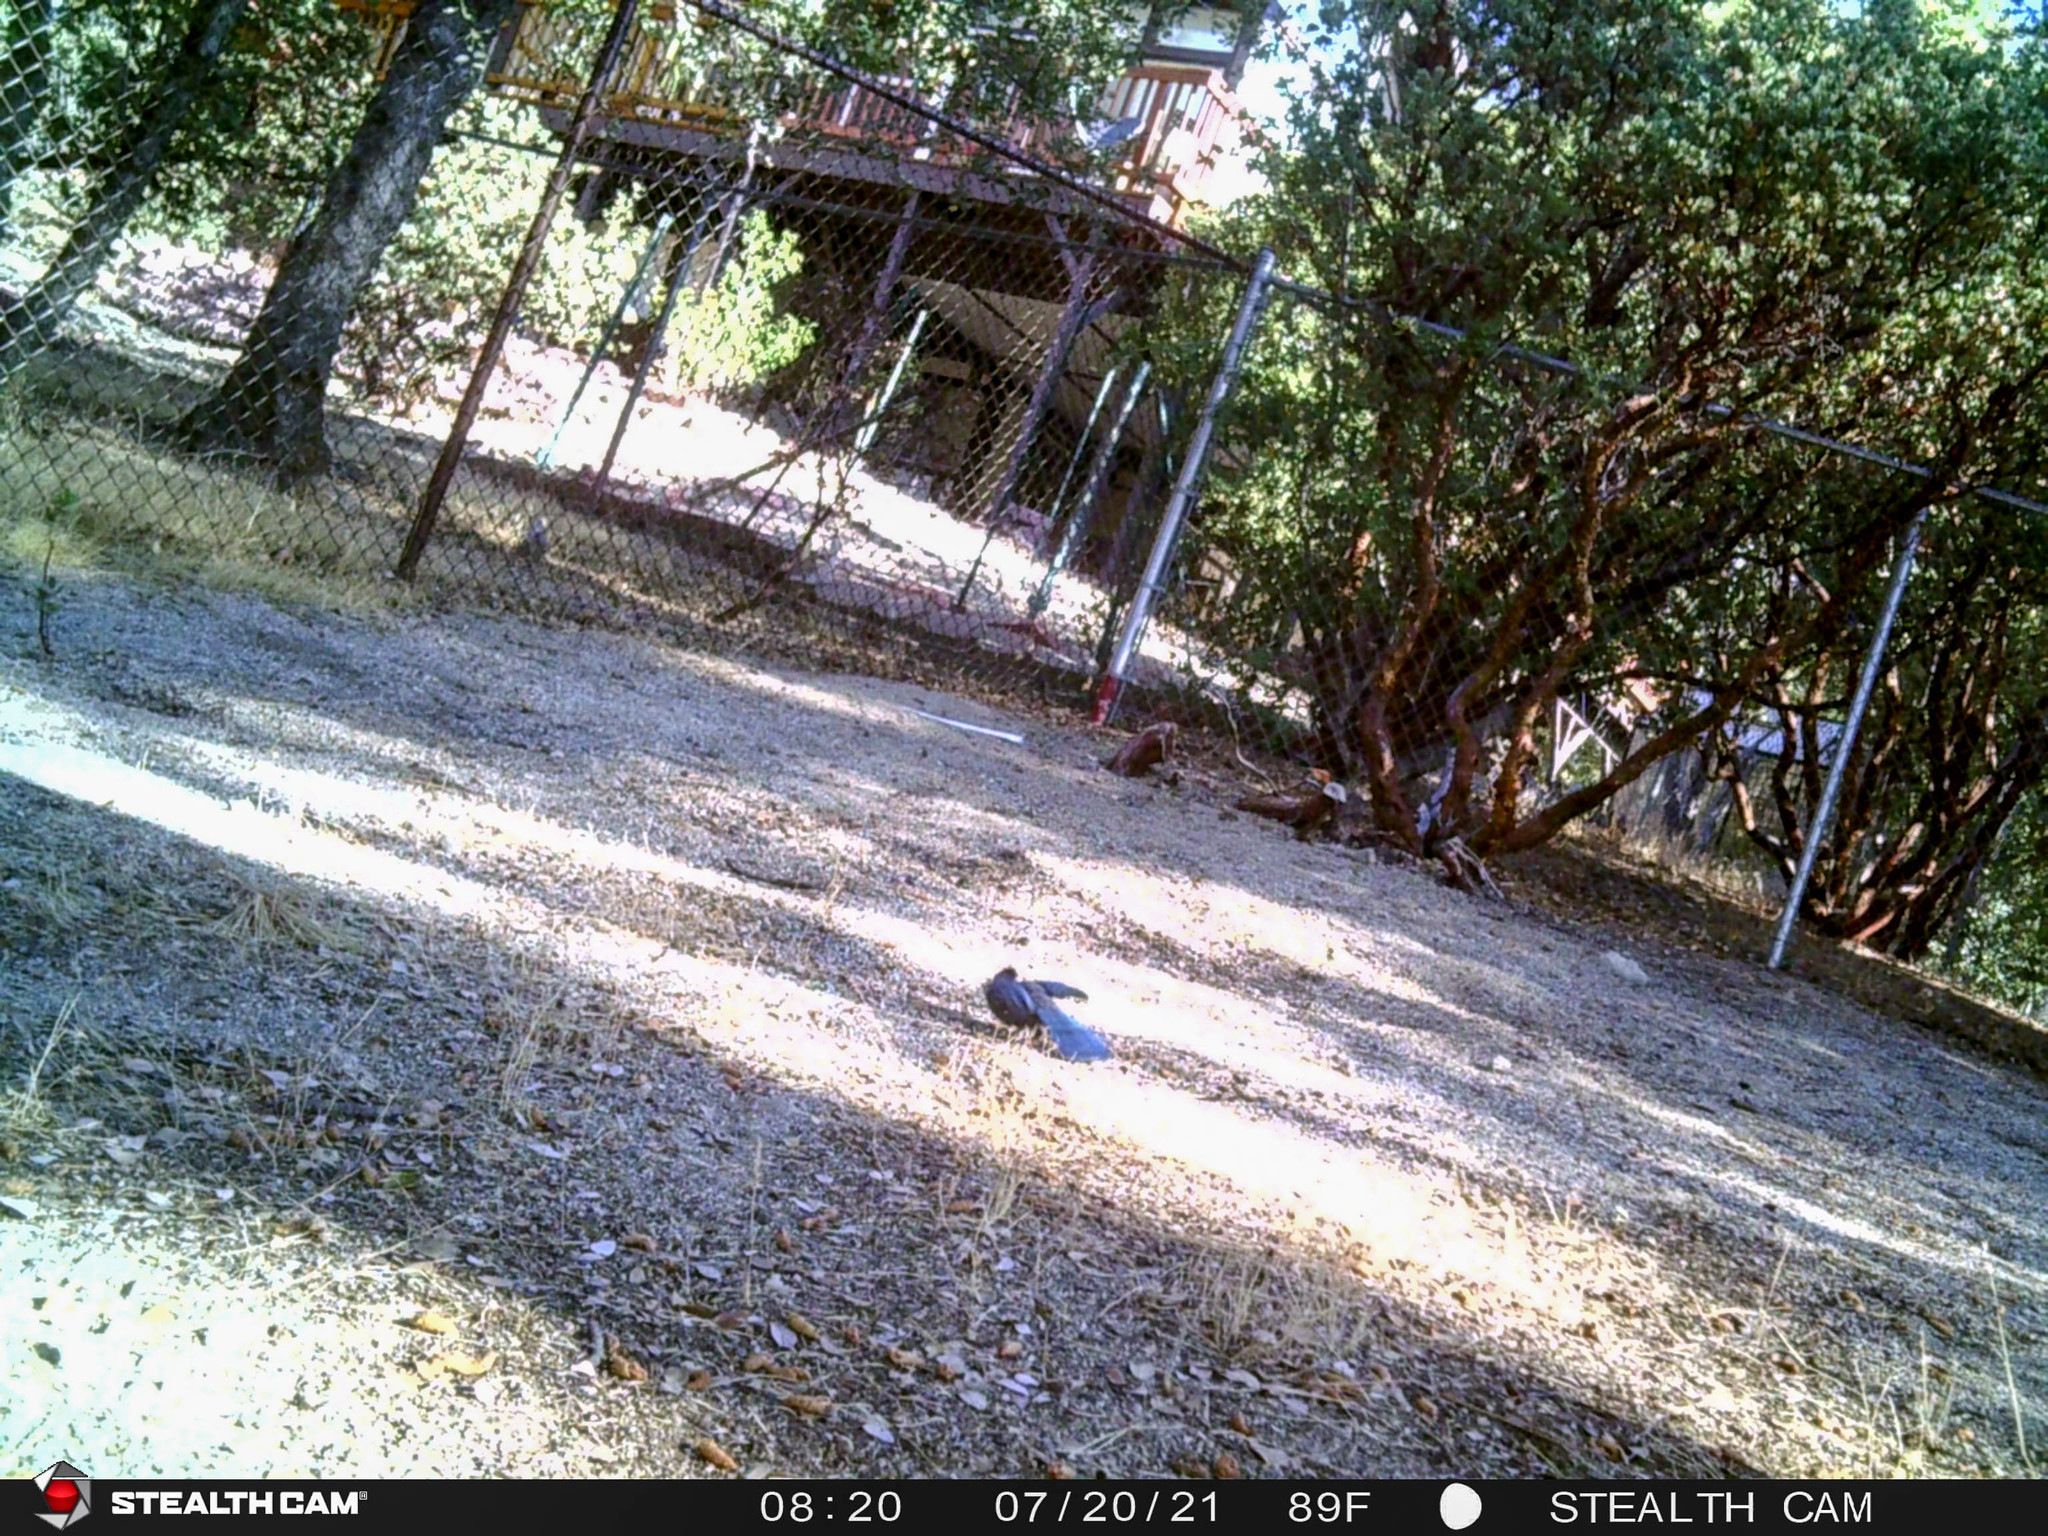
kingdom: Animalia
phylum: Chordata
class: Aves
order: Passeriformes
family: Corvidae
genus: Cyanocitta
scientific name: Cyanocitta stelleri
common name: Steller's jay
